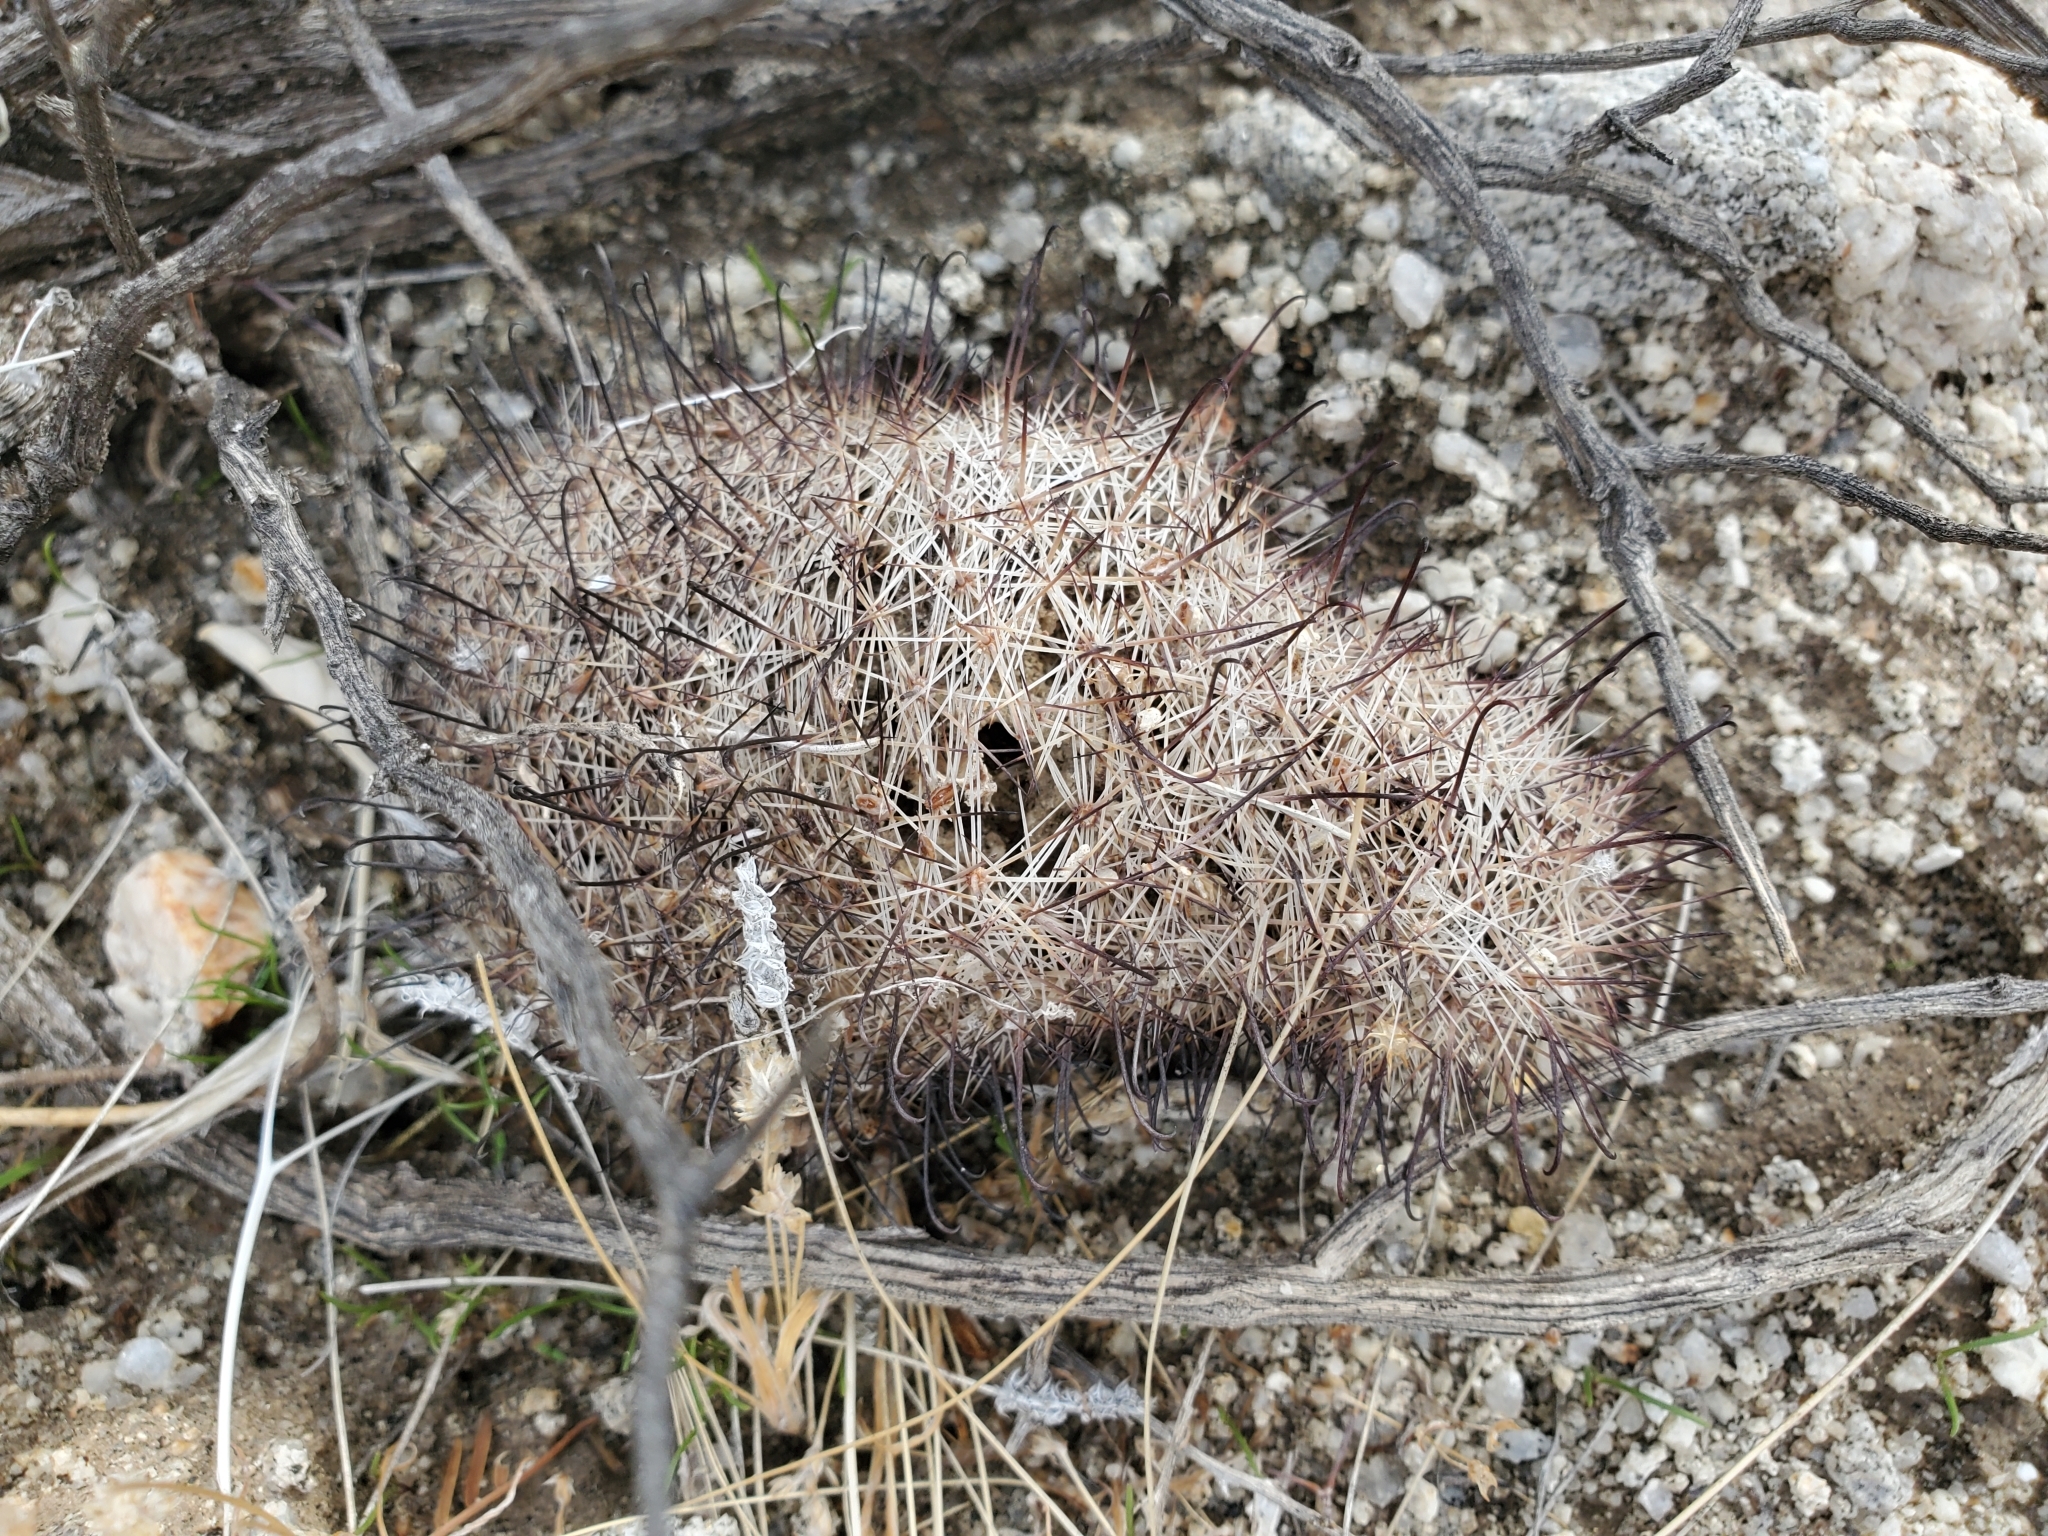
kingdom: Plantae
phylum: Tracheophyta
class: Magnoliopsida
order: Caryophyllales
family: Cactaceae
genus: Cochemiea
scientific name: Cochemiea dioica
